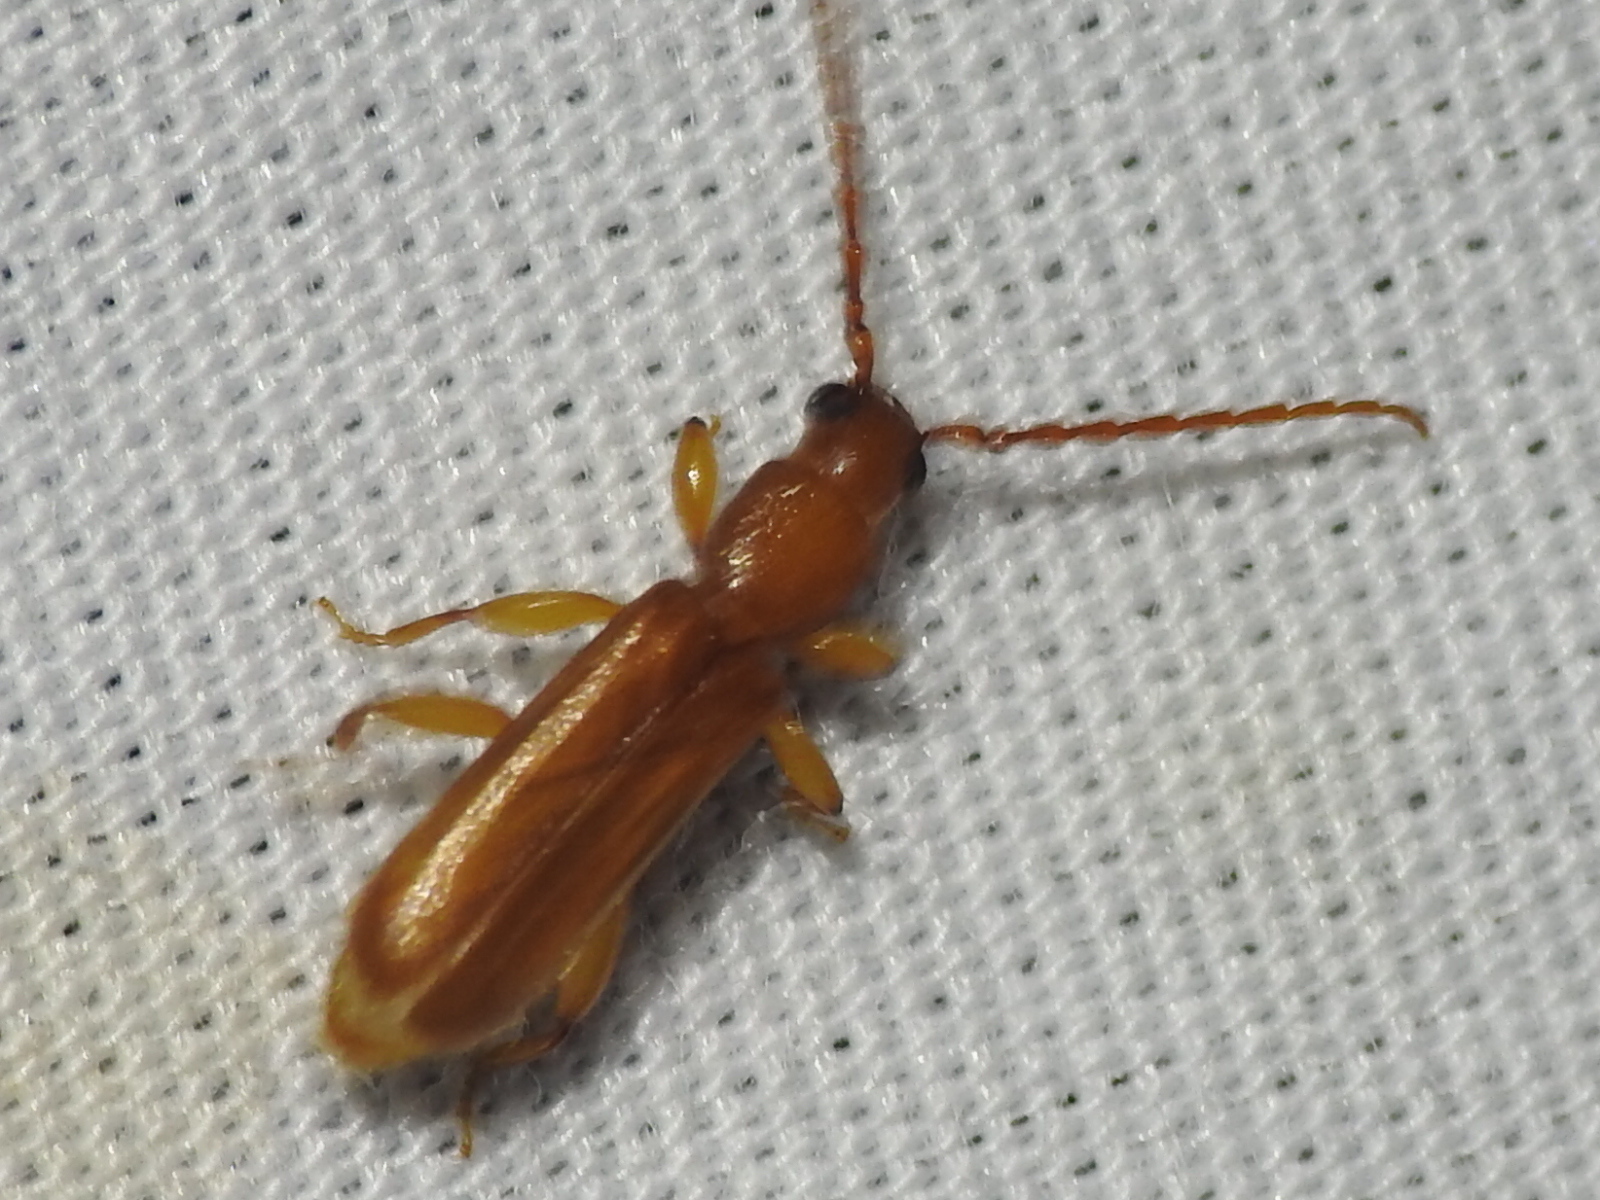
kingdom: Animalia
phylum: Arthropoda
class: Insecta
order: Coleoptera
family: Cerambycidae
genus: Smodicum
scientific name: Smodicum cucujiforme
